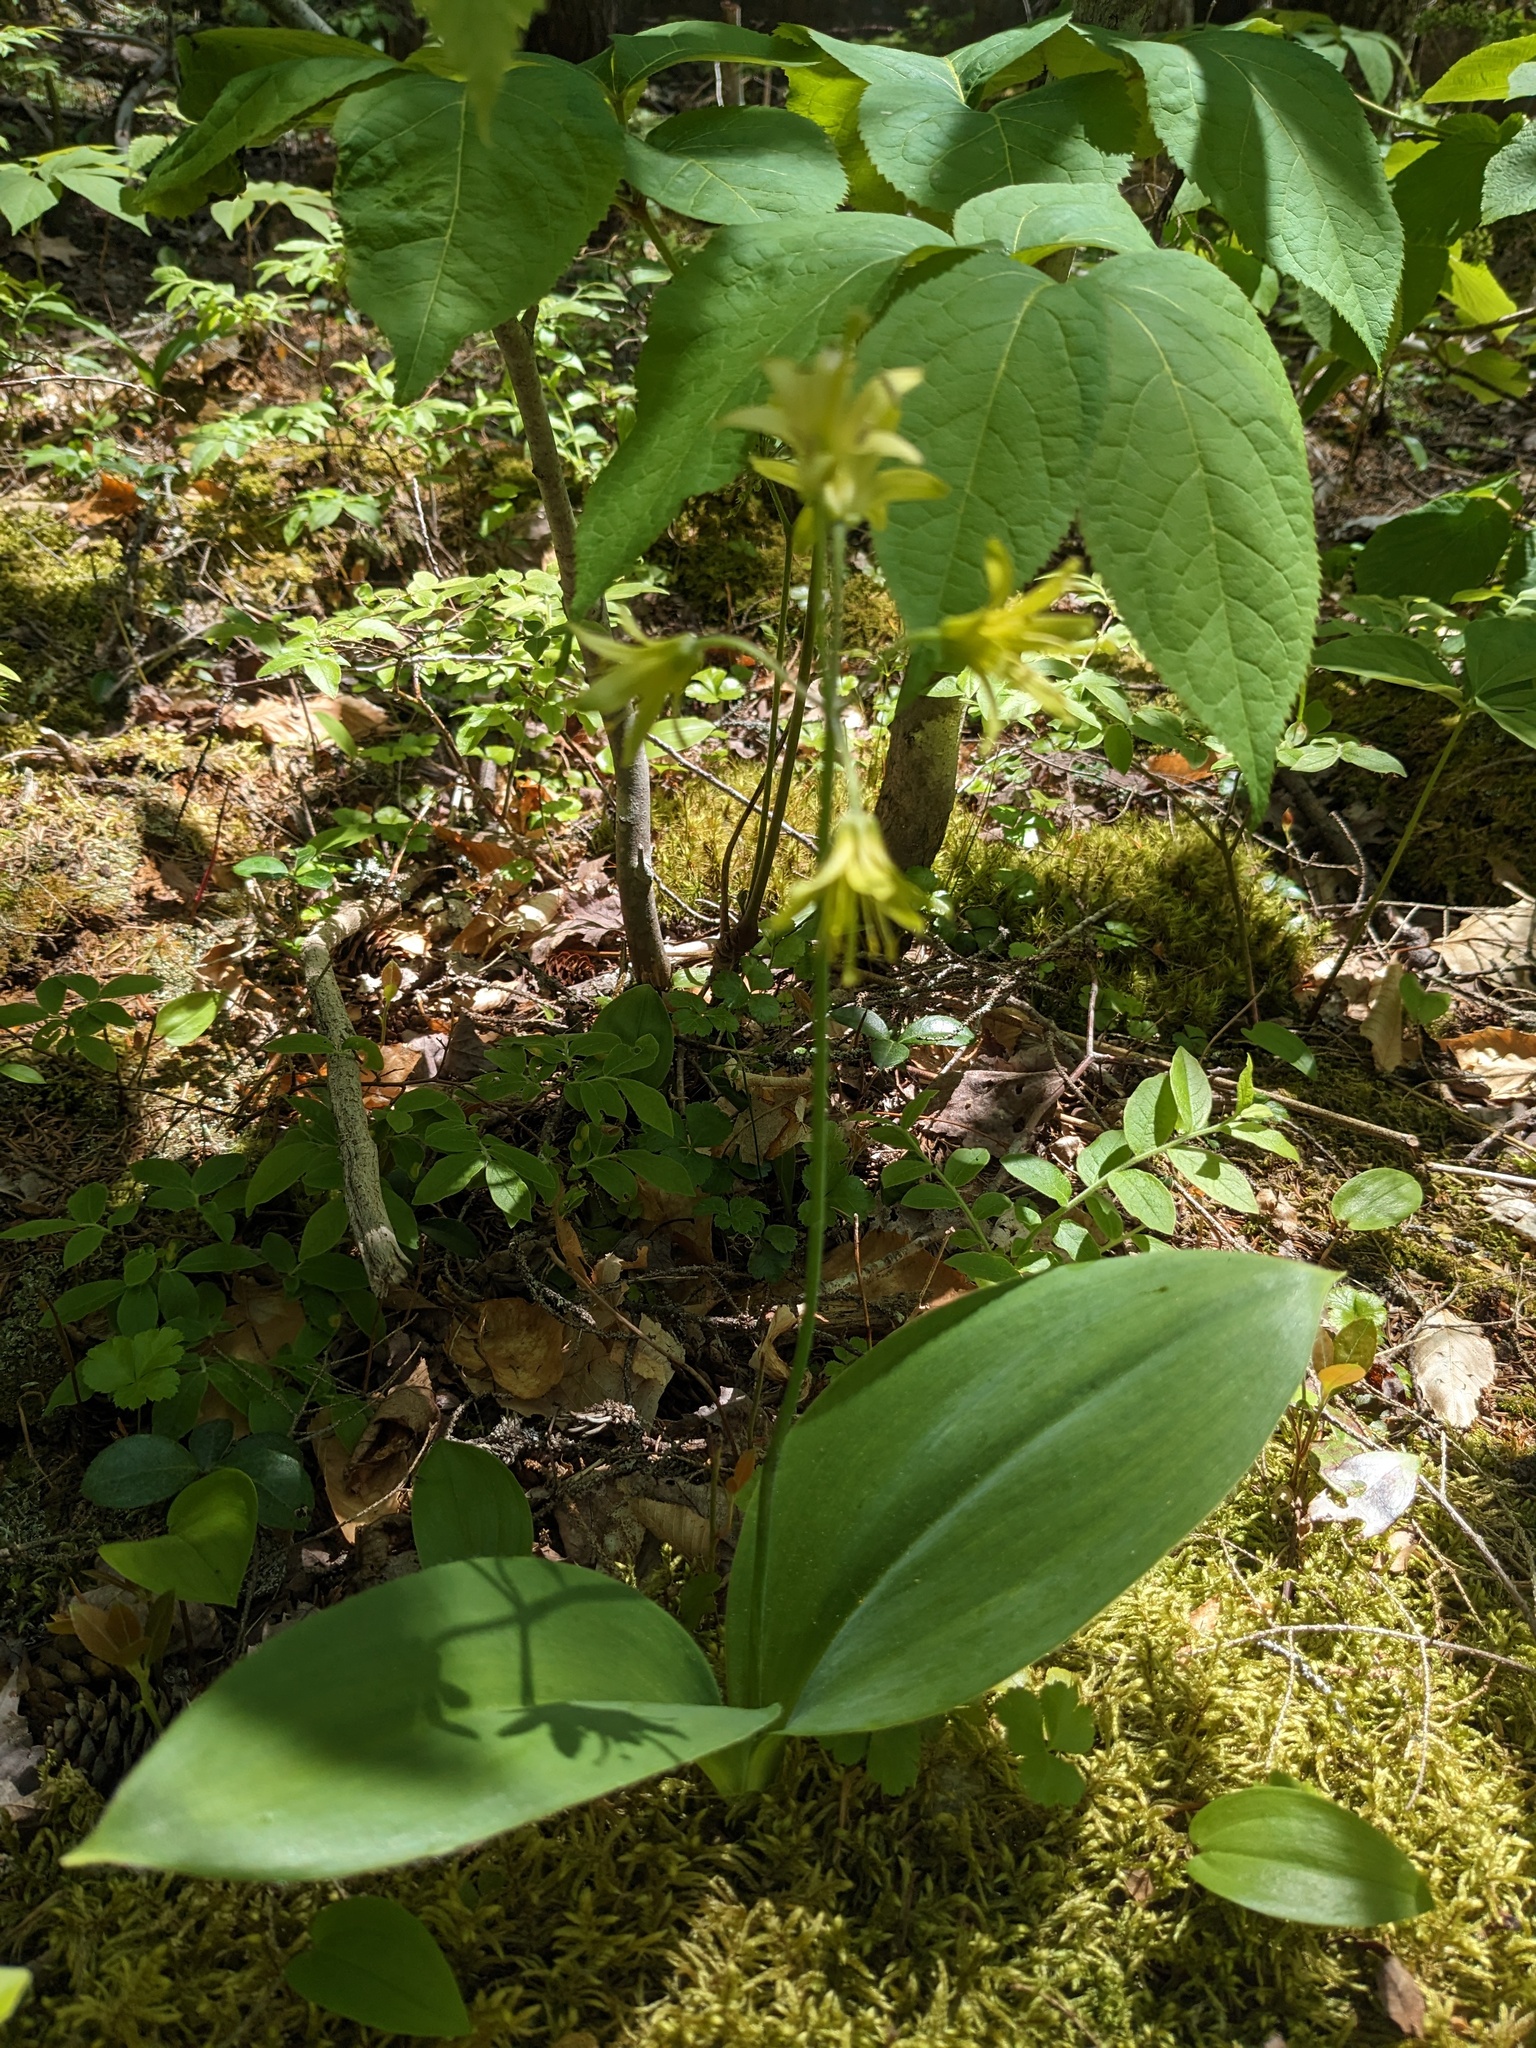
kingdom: Plantae
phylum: Tracheophyta
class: Liliopsida
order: Liliales
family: Liliaceae
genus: Clintonia
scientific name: Clintonia borealis
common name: Yellow clintonia
